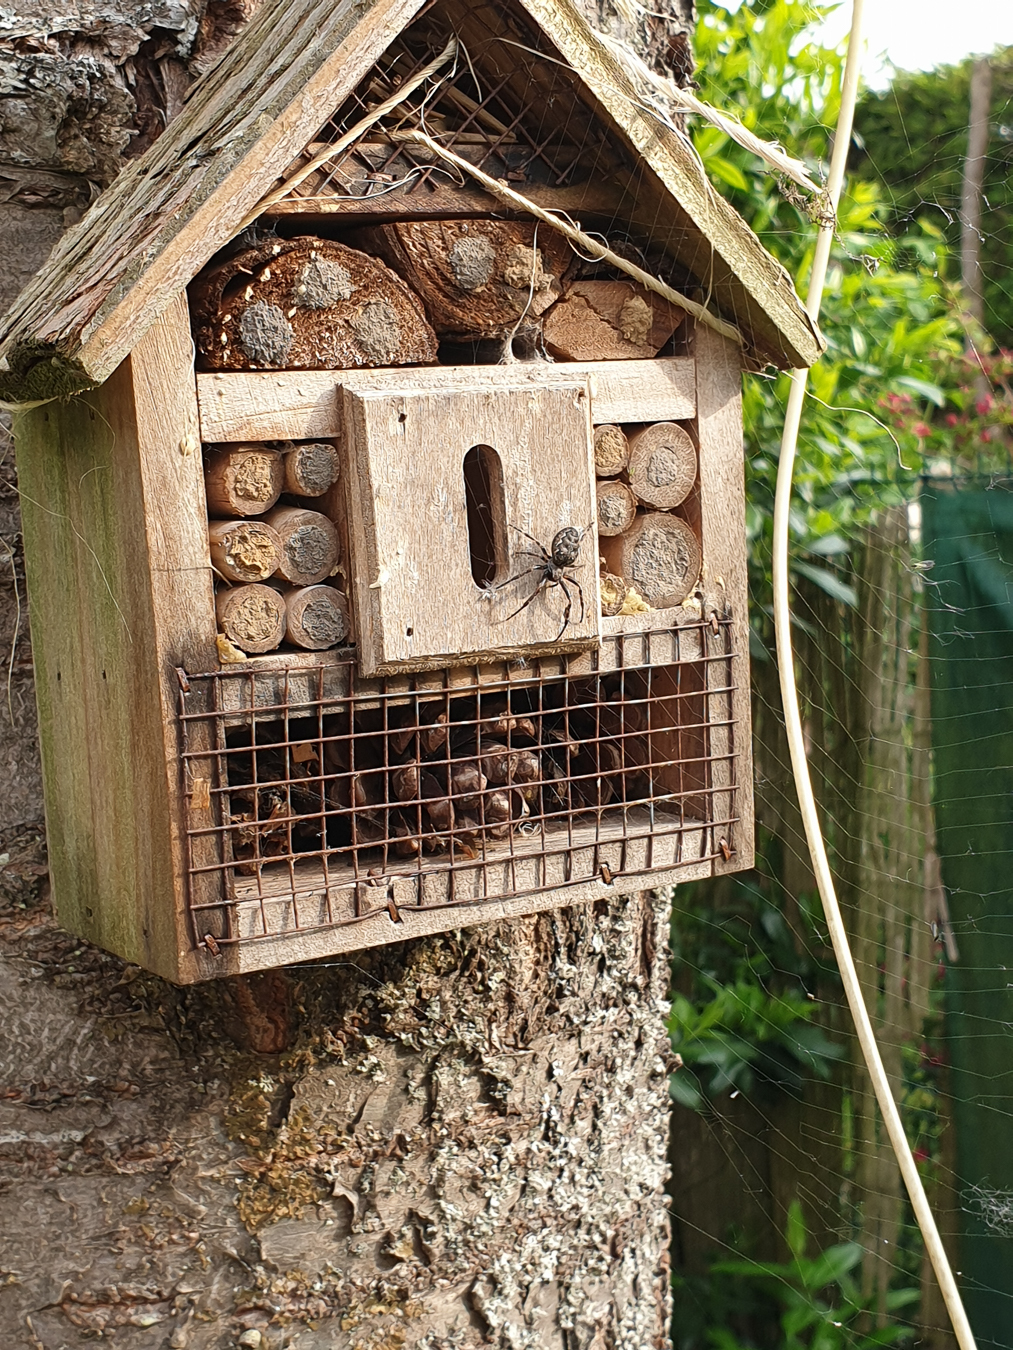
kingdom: Animalia
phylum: Arthropoda
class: Arachnida
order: Araneae
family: Araneidae
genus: Nuctenea
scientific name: Nuctenea umbratica
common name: Toad spider
